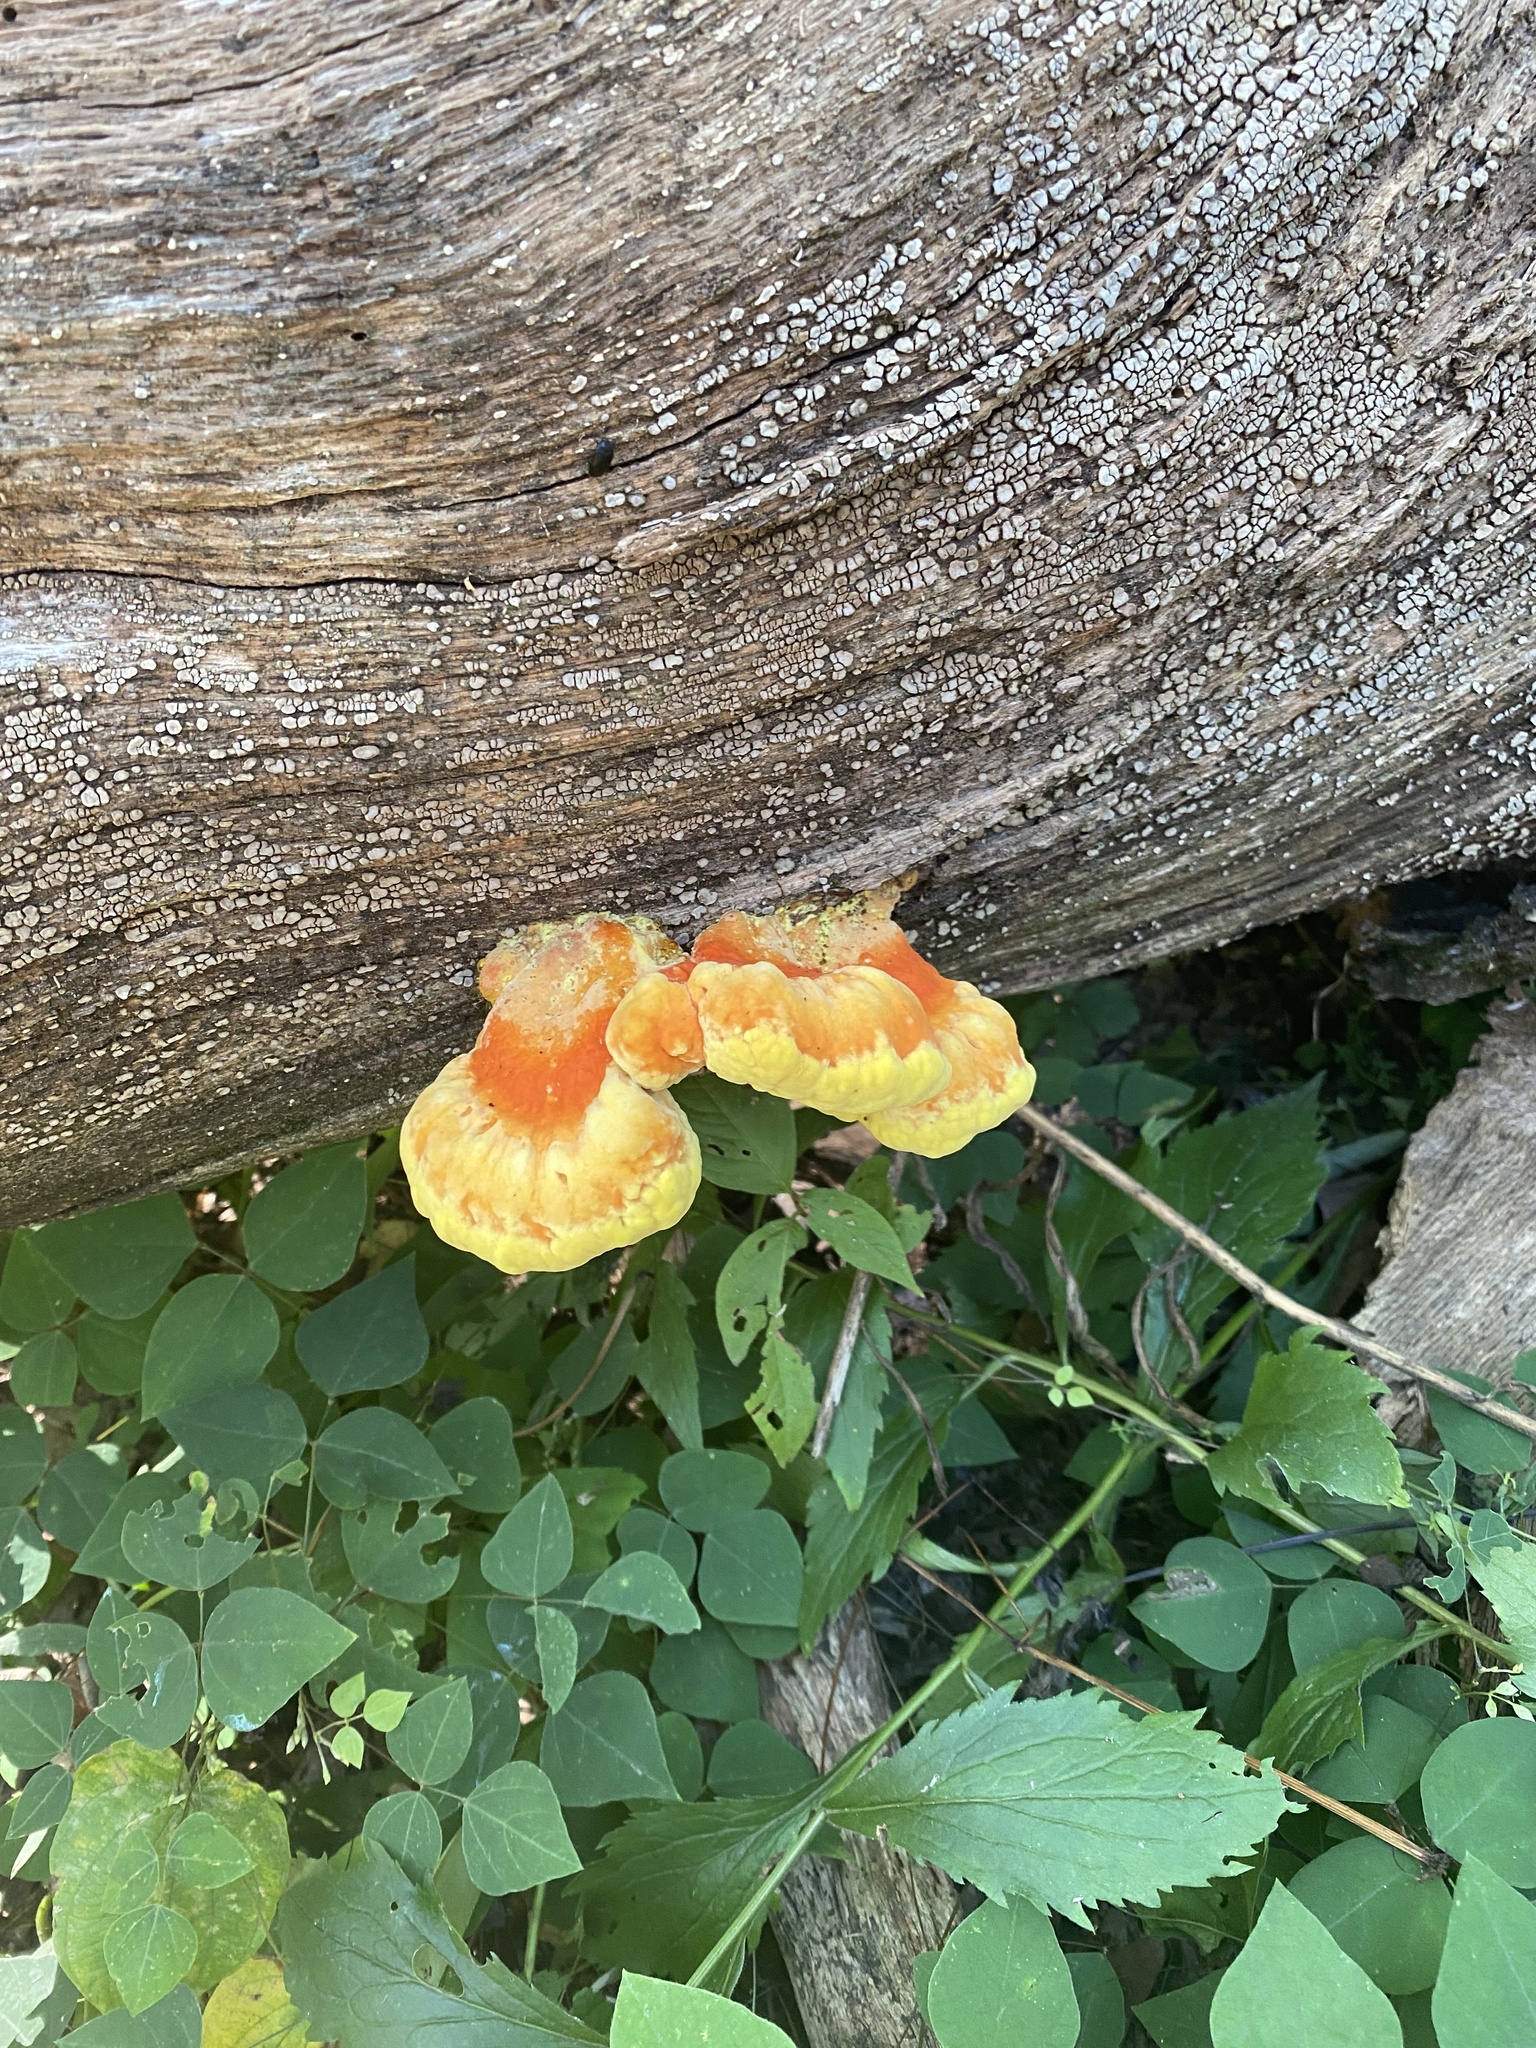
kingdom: Fungi
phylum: Basidiomycota
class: Agaricomycetes
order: Polyporales
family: Laetiporaceae
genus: Laetiporus
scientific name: Laetiporus sulphureus
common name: Chicken of the woods
